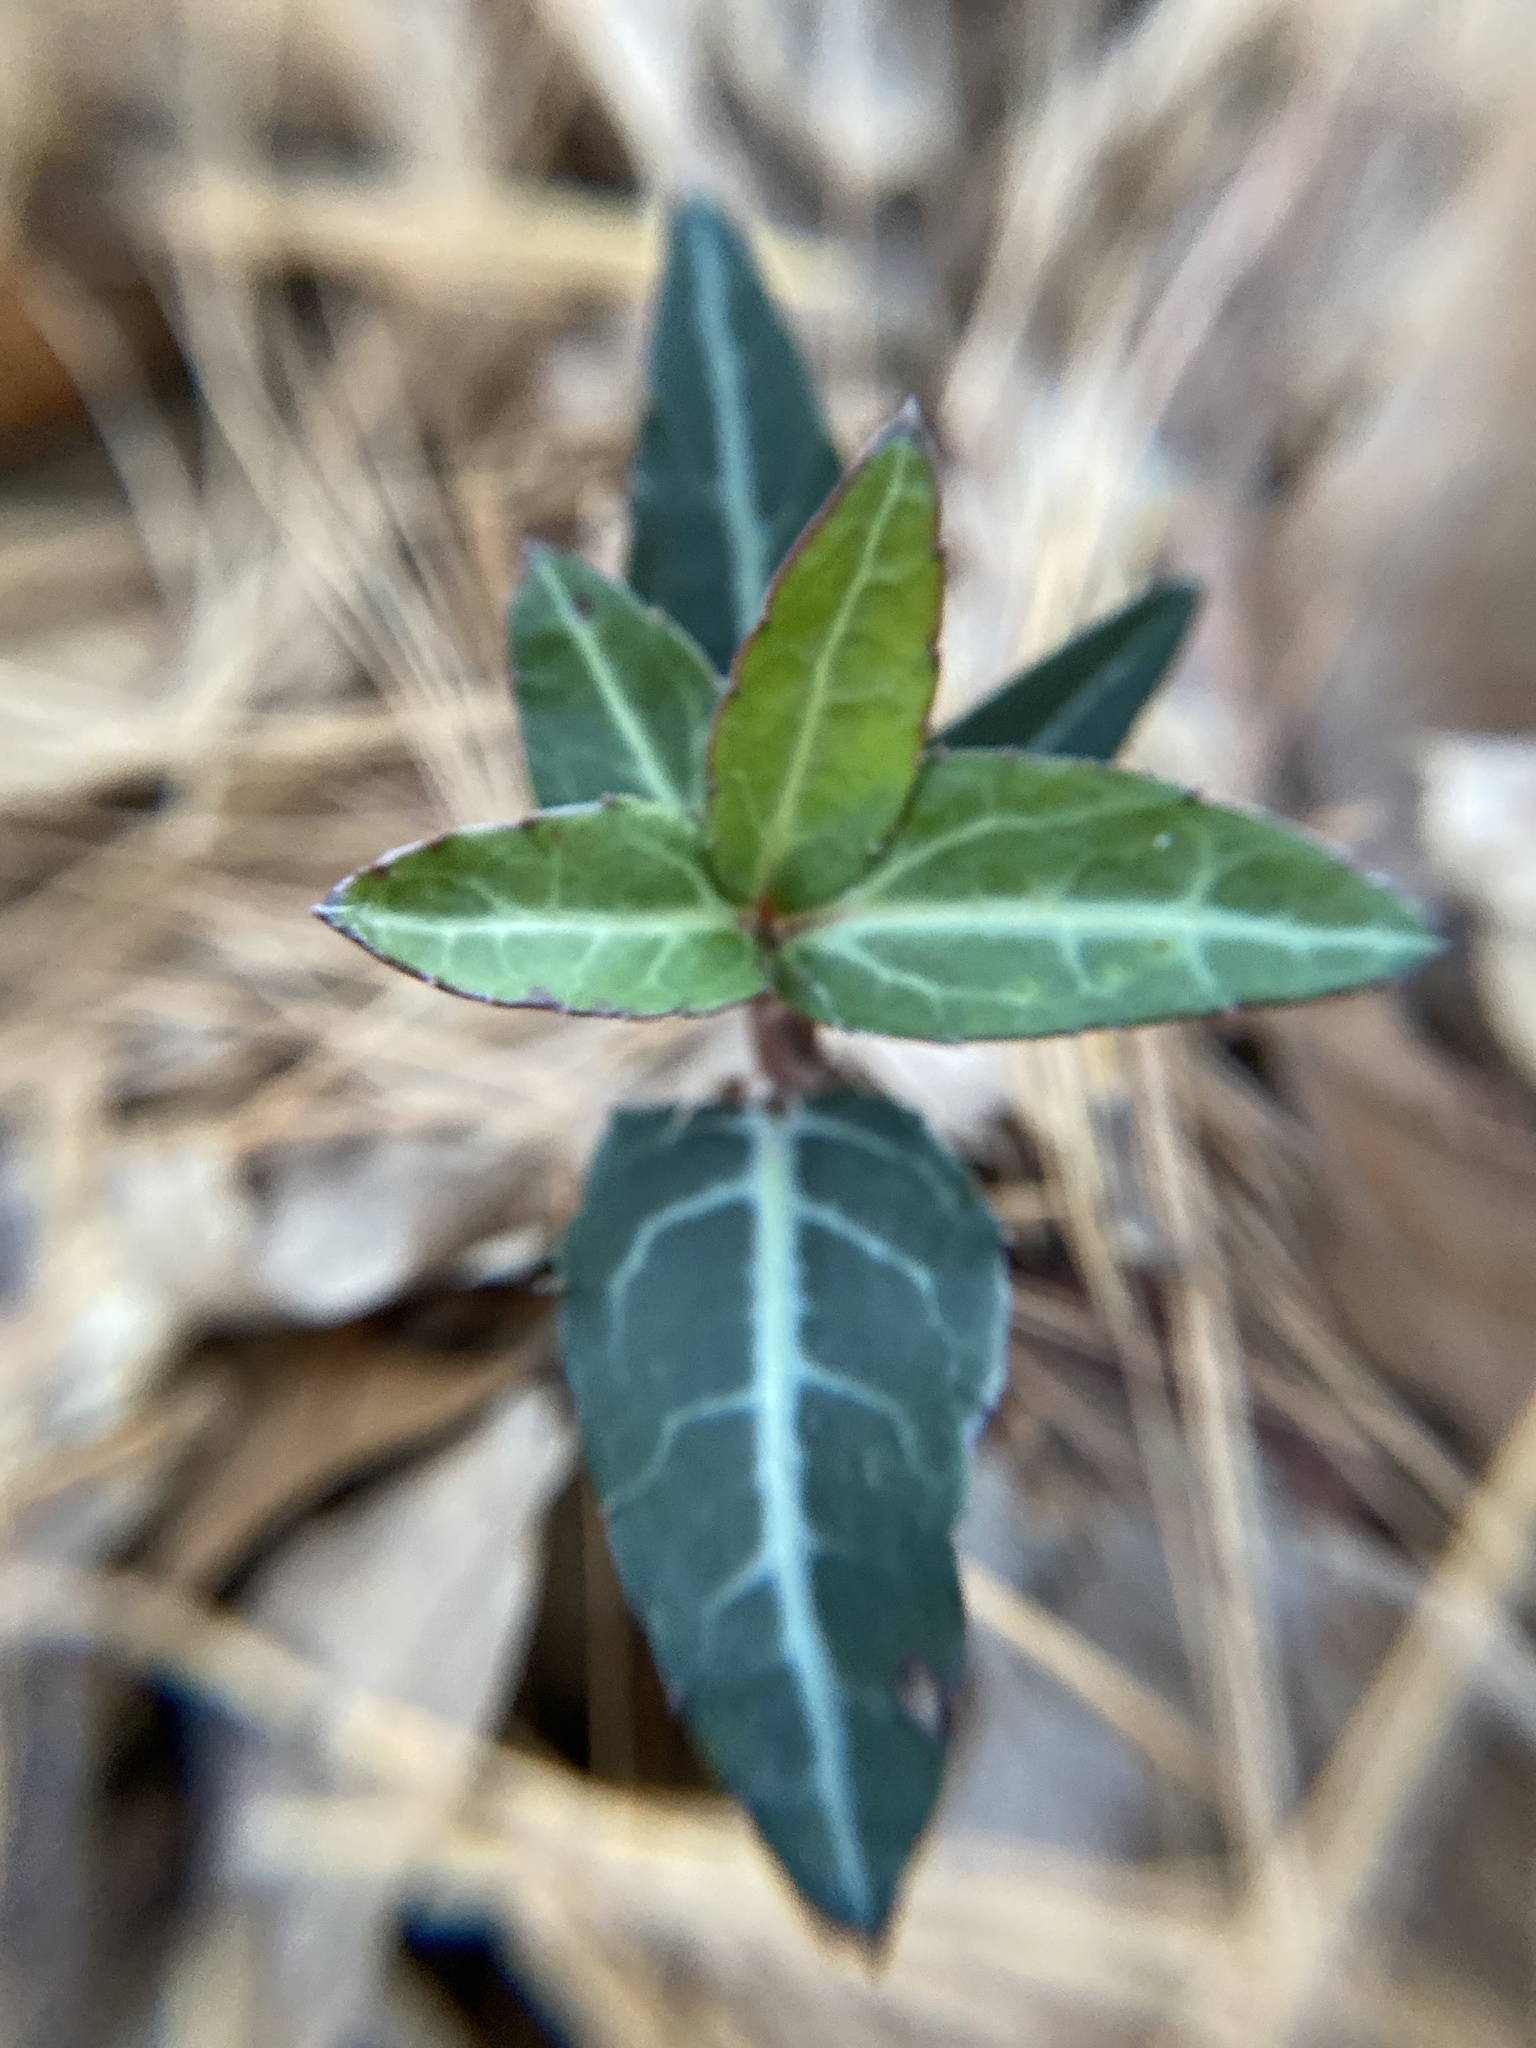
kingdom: Plantae
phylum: Tracheophyta
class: Magnoliopsida
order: Ericales
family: Ericaceae
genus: Chimaphila
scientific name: Chimaphila maculata
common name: Spotted pipsissewa
